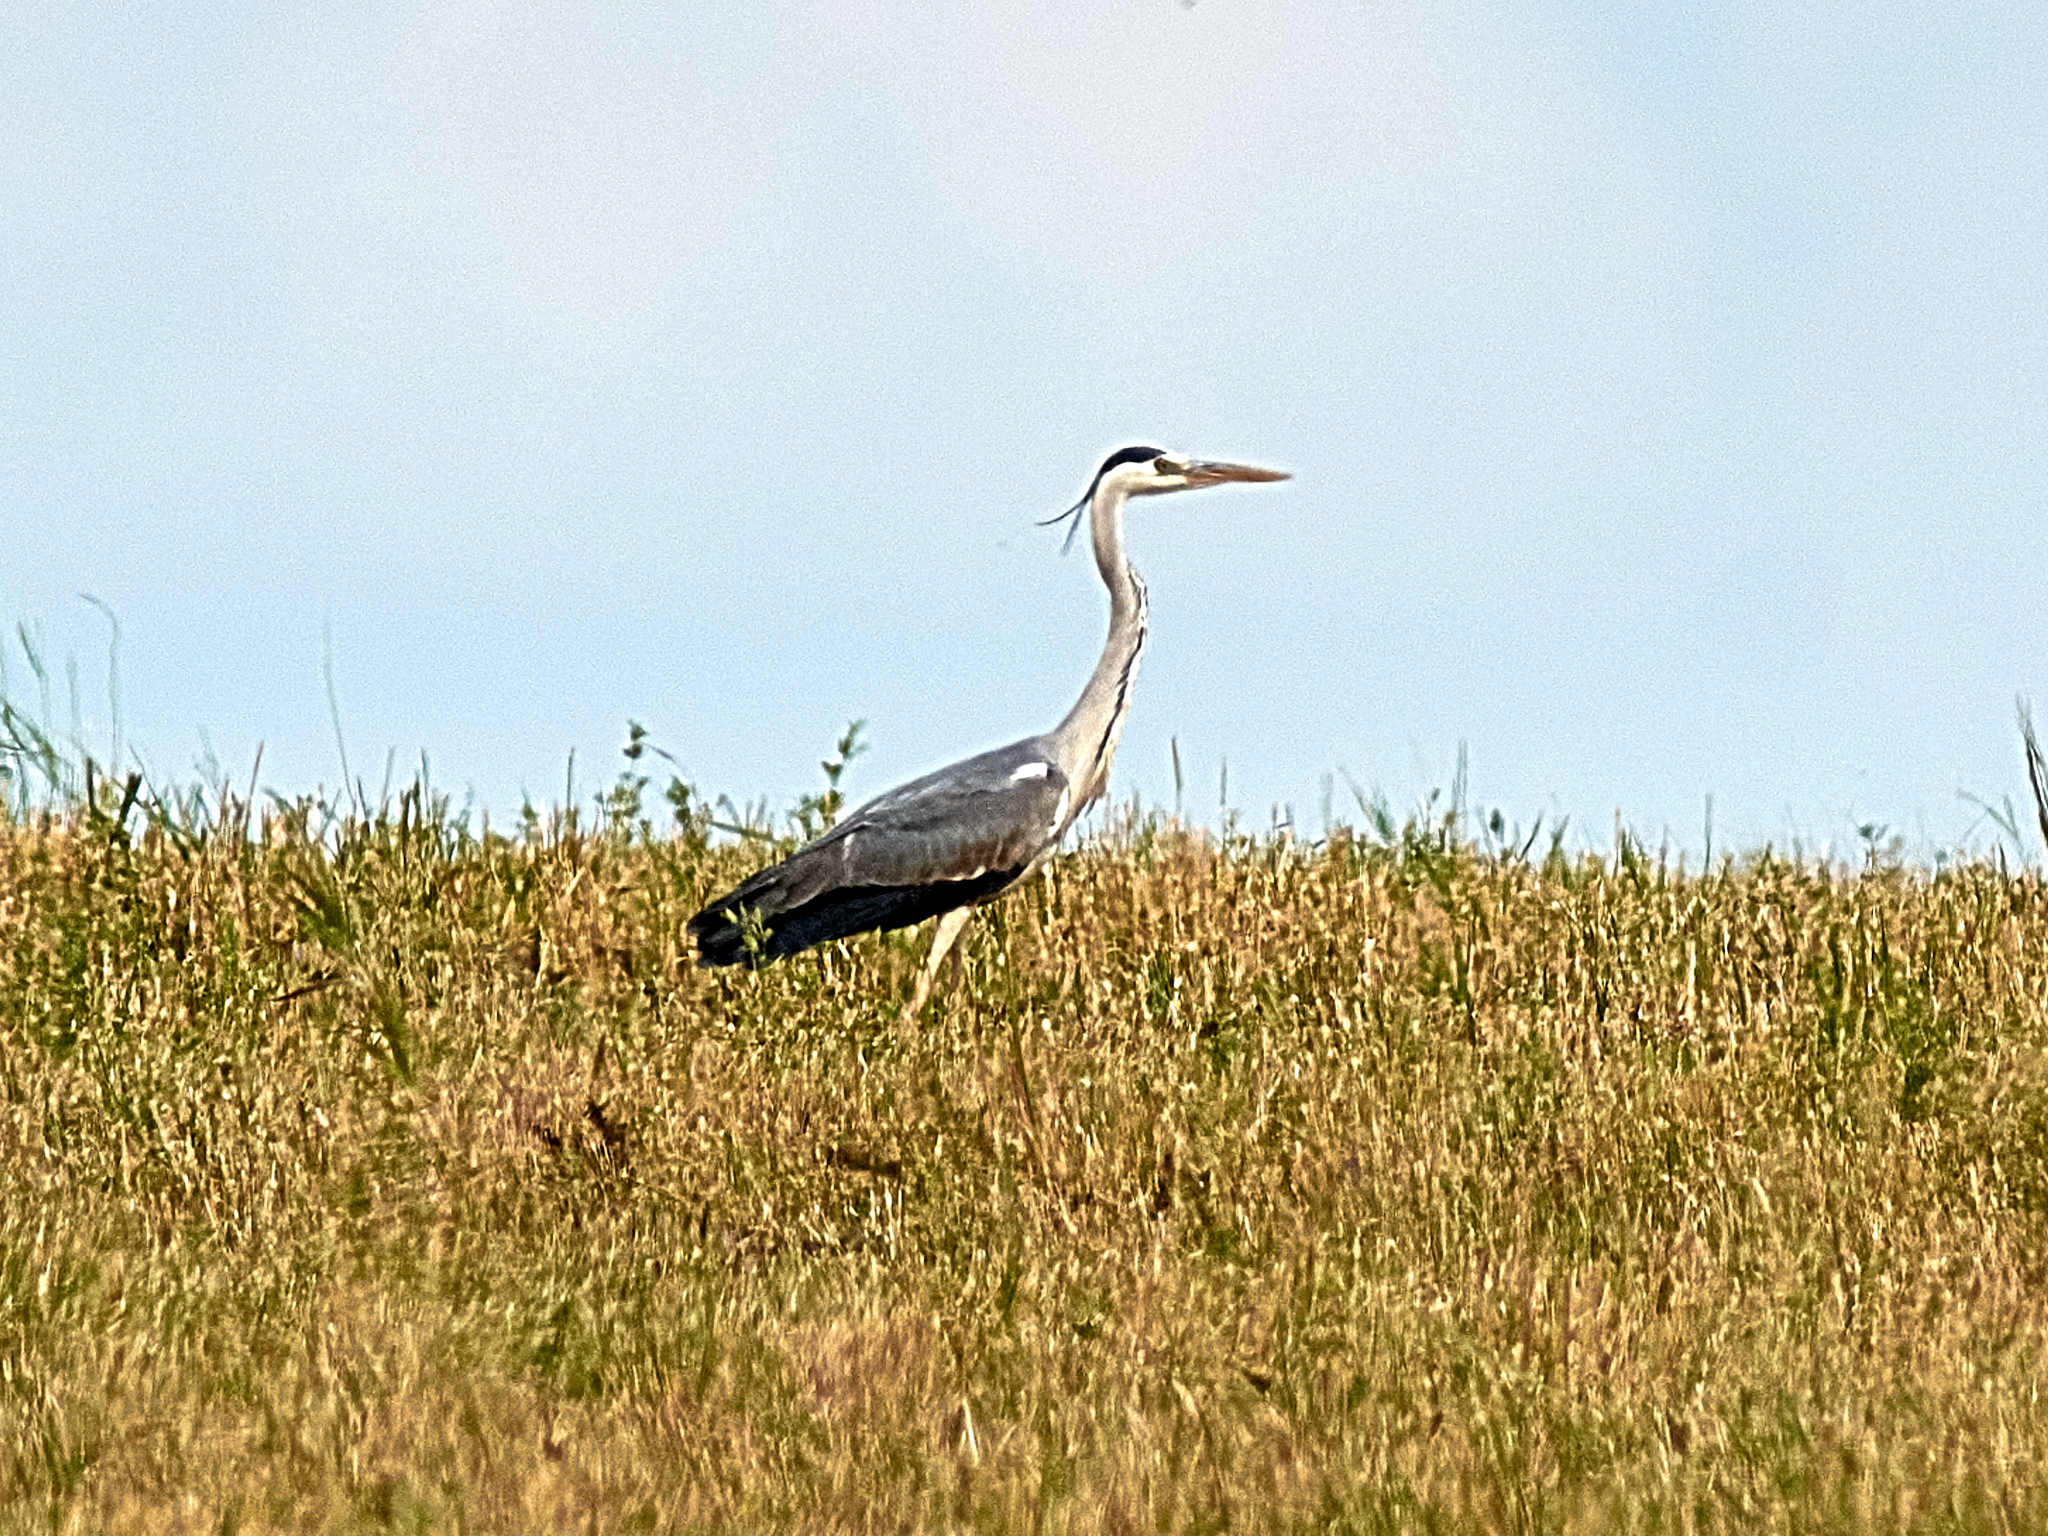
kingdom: Animalia
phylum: Chordata
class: Aves
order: Pelecaniformes
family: Ardeidae
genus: Ardea
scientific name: Ardea cinerea
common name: Grey heron
